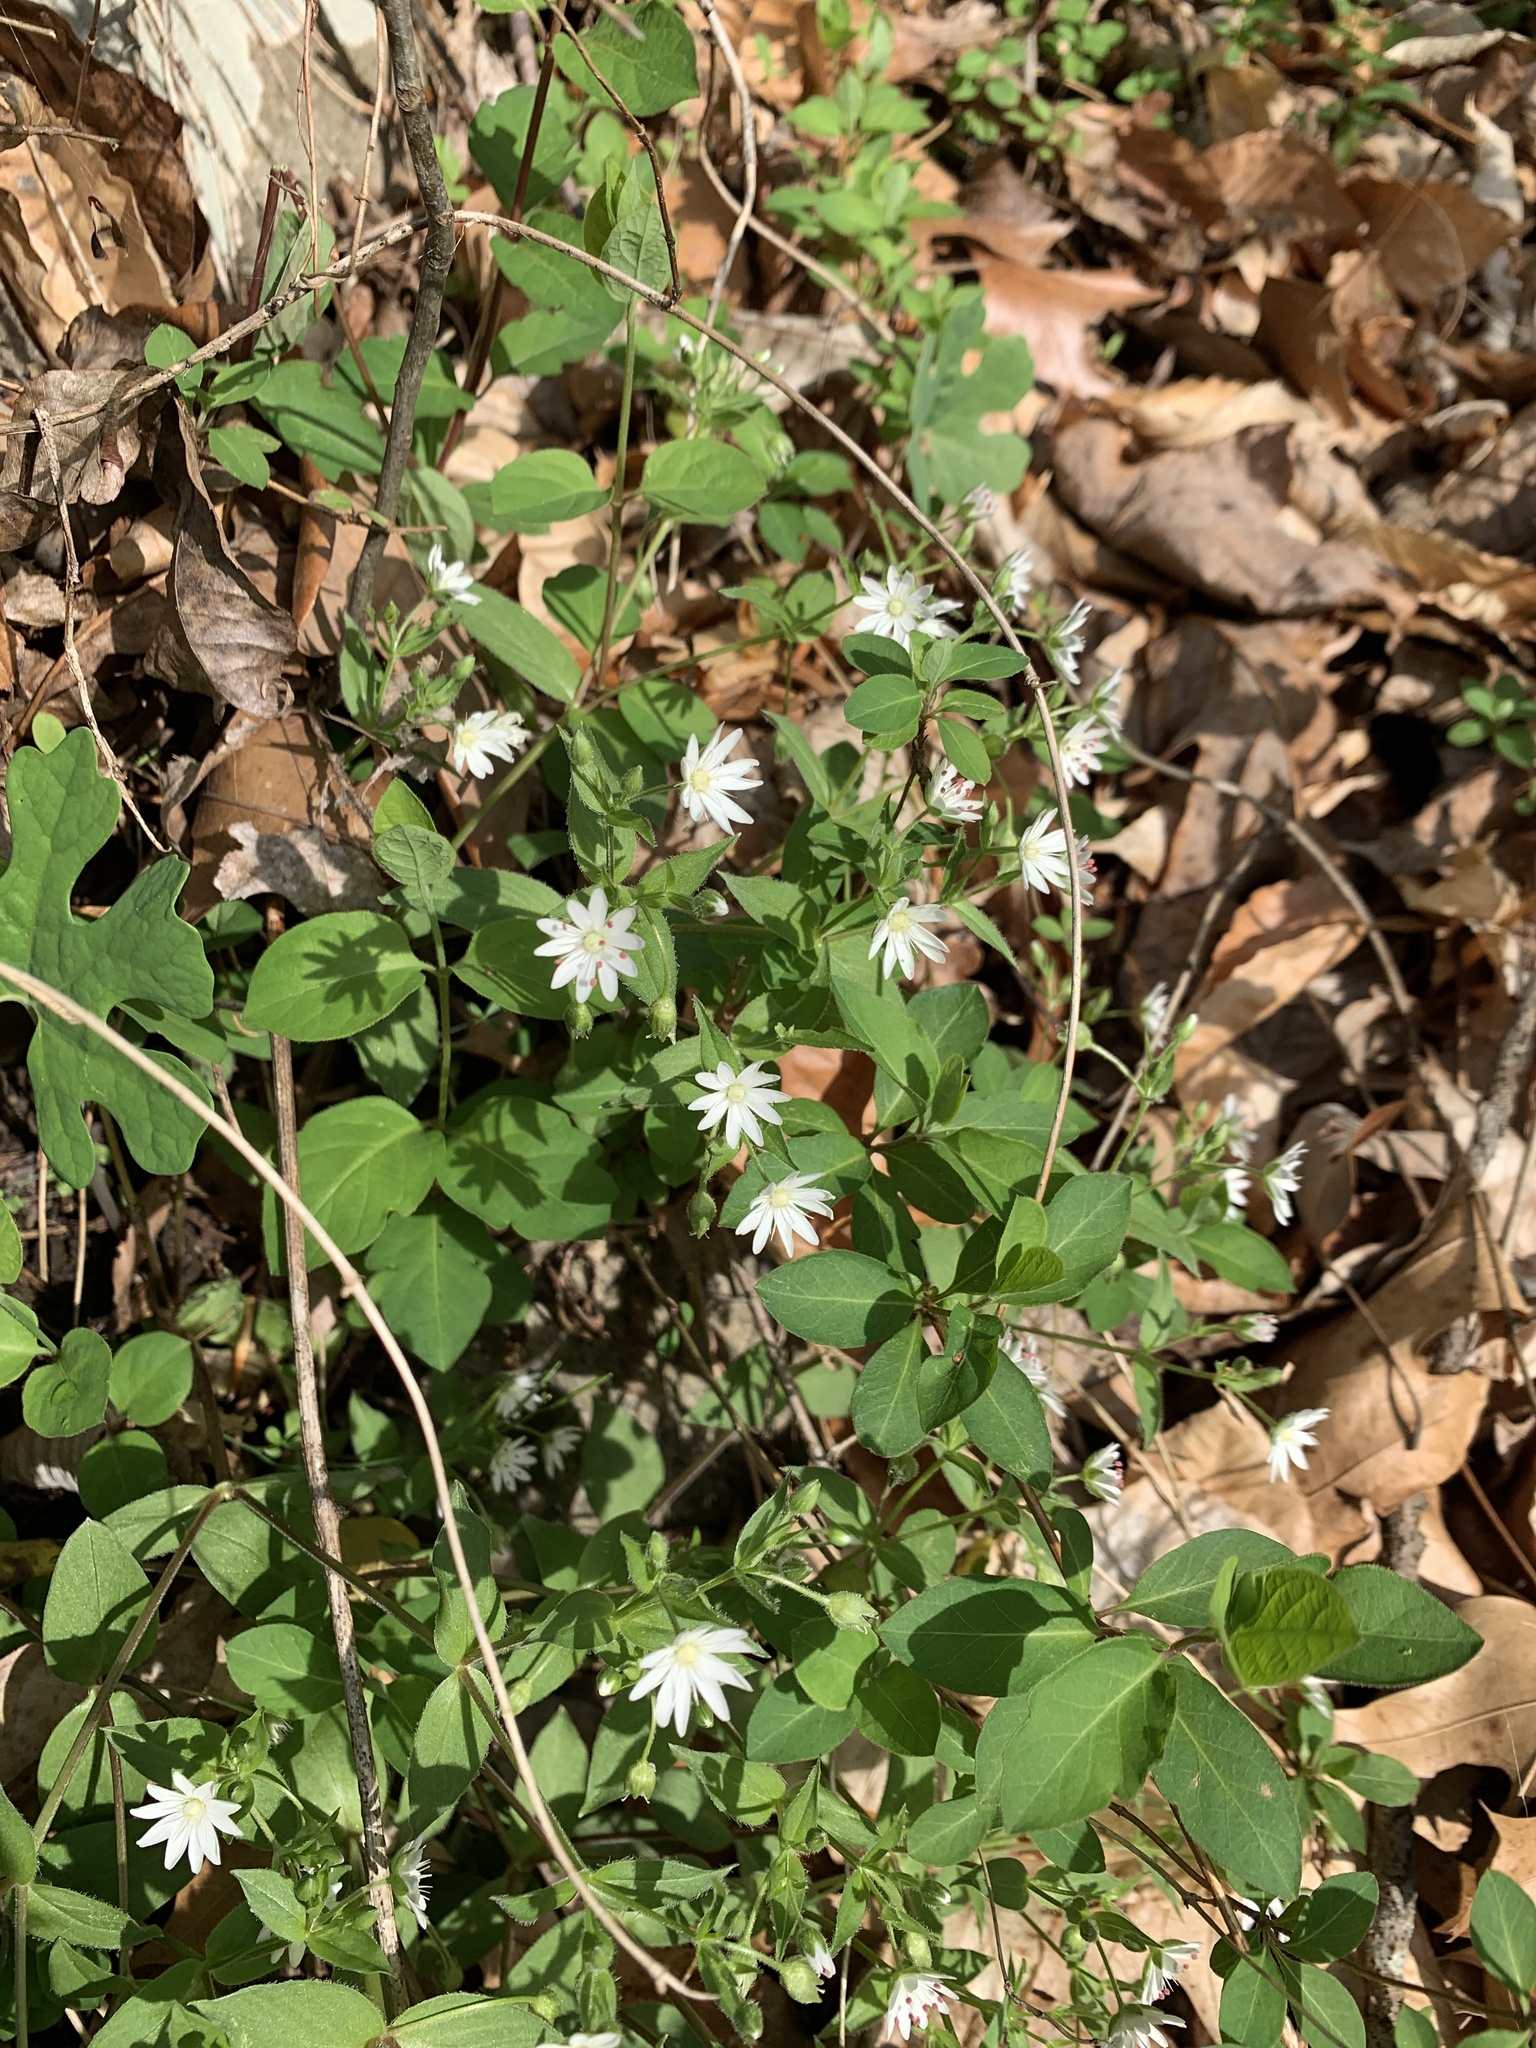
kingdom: Plantae
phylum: Tracheophyta
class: Magnoliopsida
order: Caryophyllales
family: Caryophyllaceae
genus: Stellaria
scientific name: Stellaria pubera
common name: Star chickweed
